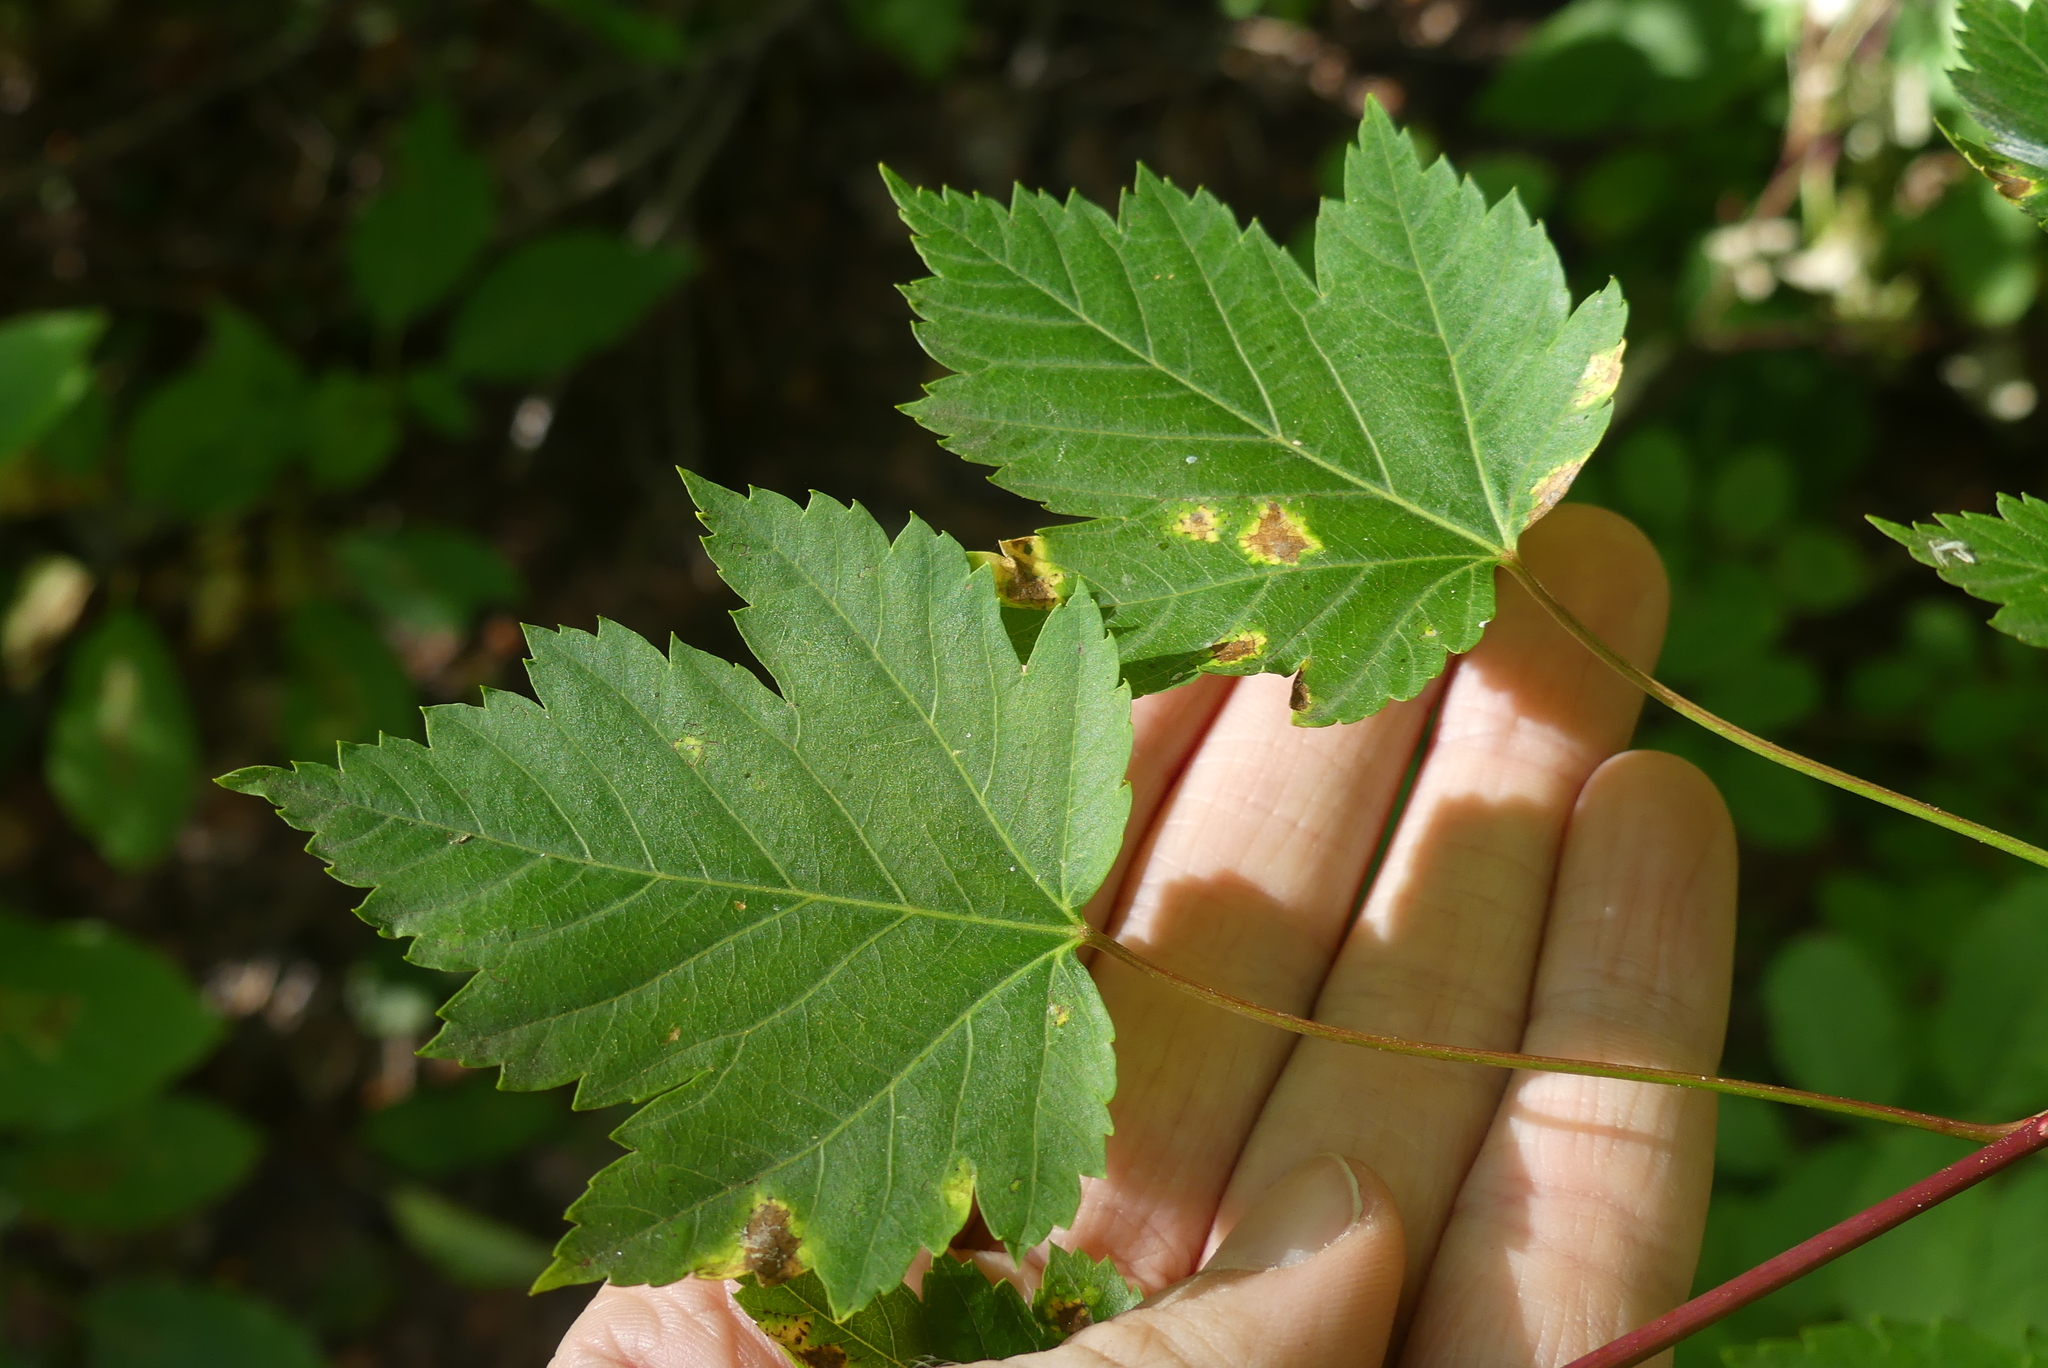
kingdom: Plantae
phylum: Tracheophyta
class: Magnoliopsida
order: Sapindales
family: Sapindaceae
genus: Acer
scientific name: Acer glabrum
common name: Rocky mountain maple
